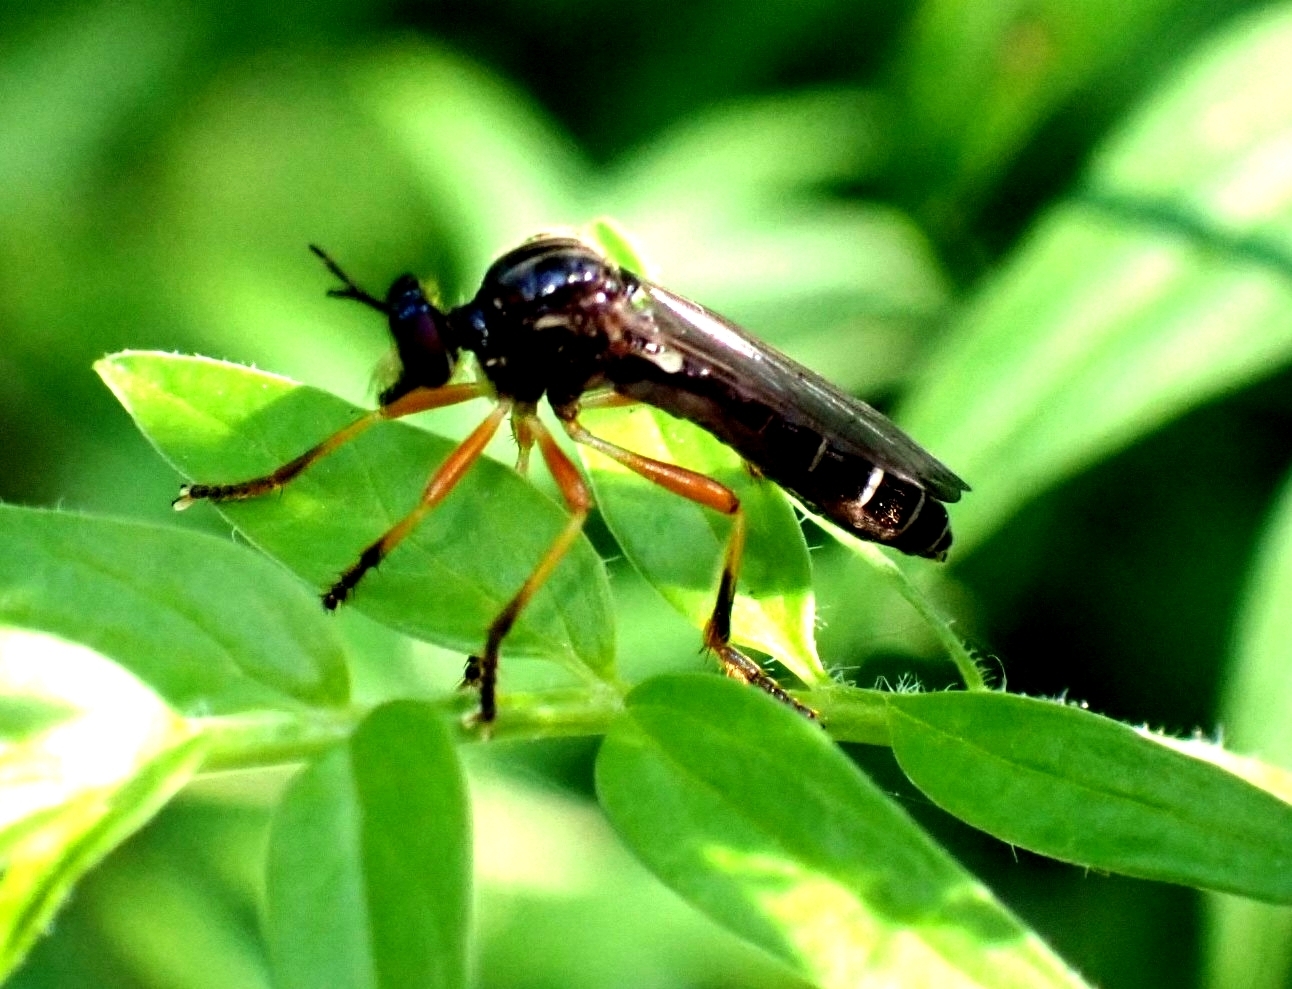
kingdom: Animalia
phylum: Arthropoda
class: Insecta
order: Diptera
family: Asilidae
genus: Dioctria
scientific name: Dioctria cothurnata
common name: Scarce red-legged robberfly
